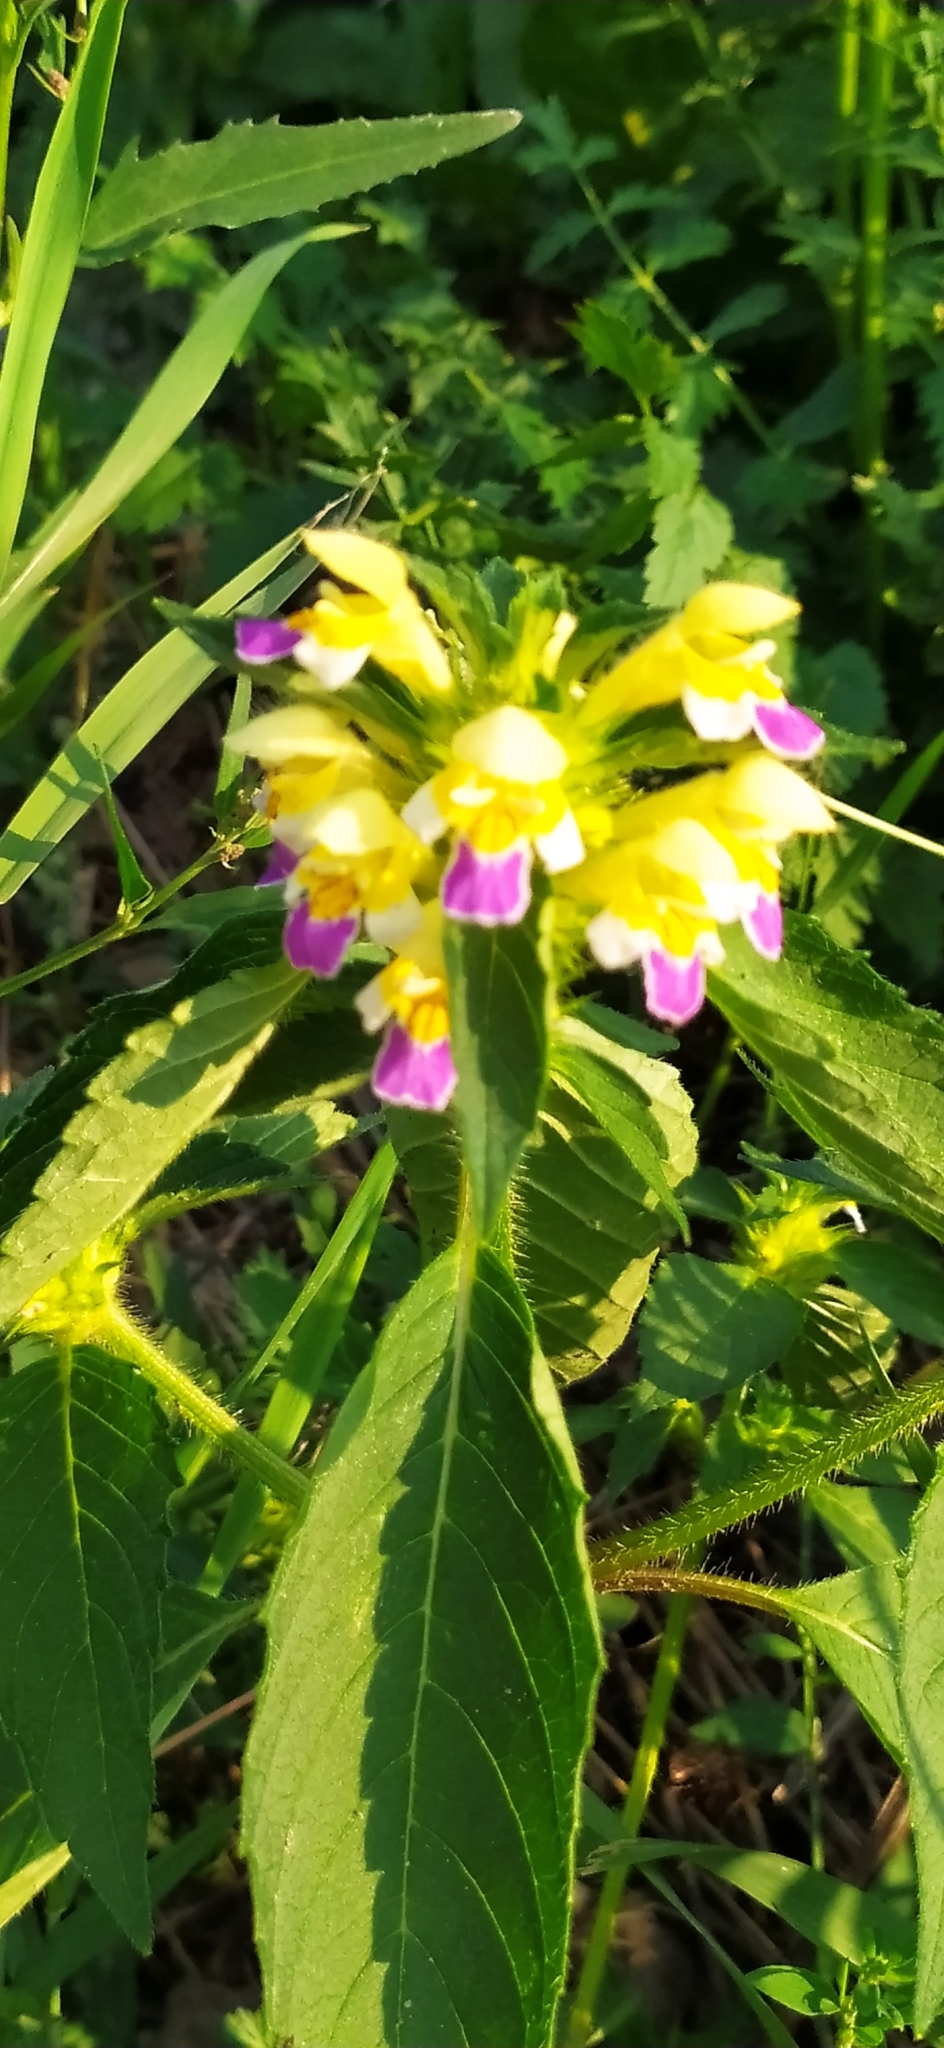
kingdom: Plantae
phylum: Tracheophyta
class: Magnoliopsida
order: Lamiales
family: Lamiaceae
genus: Galeopsis
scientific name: Galeopsis speciosa
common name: Large-flowered hemp-nettle
